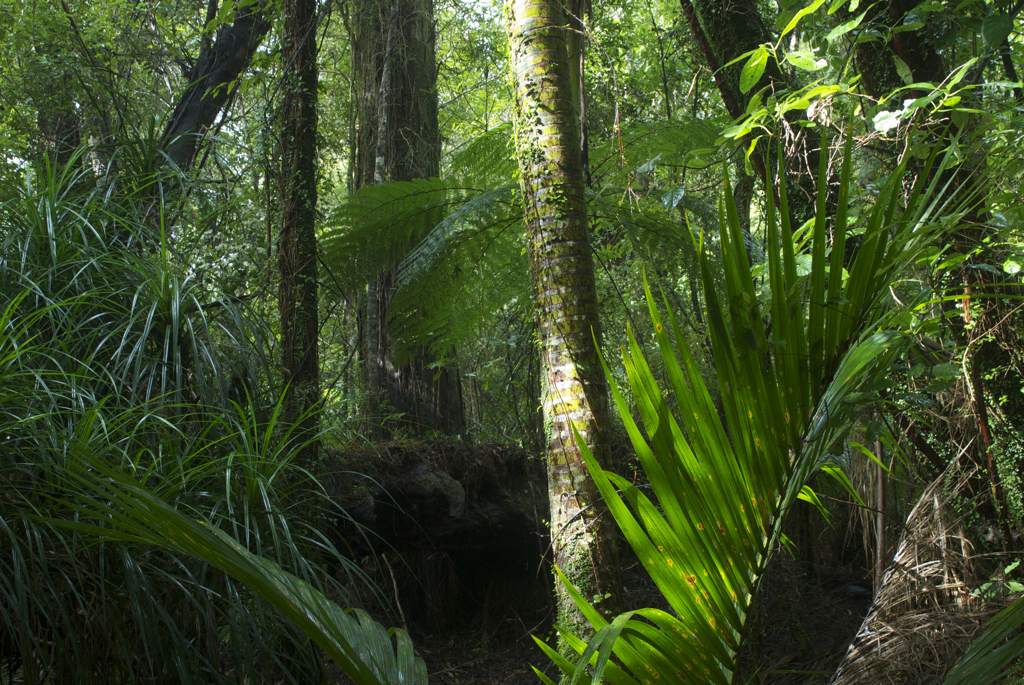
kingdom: Plantae
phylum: Tracheophyta
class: Liliopsida
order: Arecales
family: Arecaceae
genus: Rhopalostylis
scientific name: Rhopalostylis sapida
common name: Feather-duster palm
